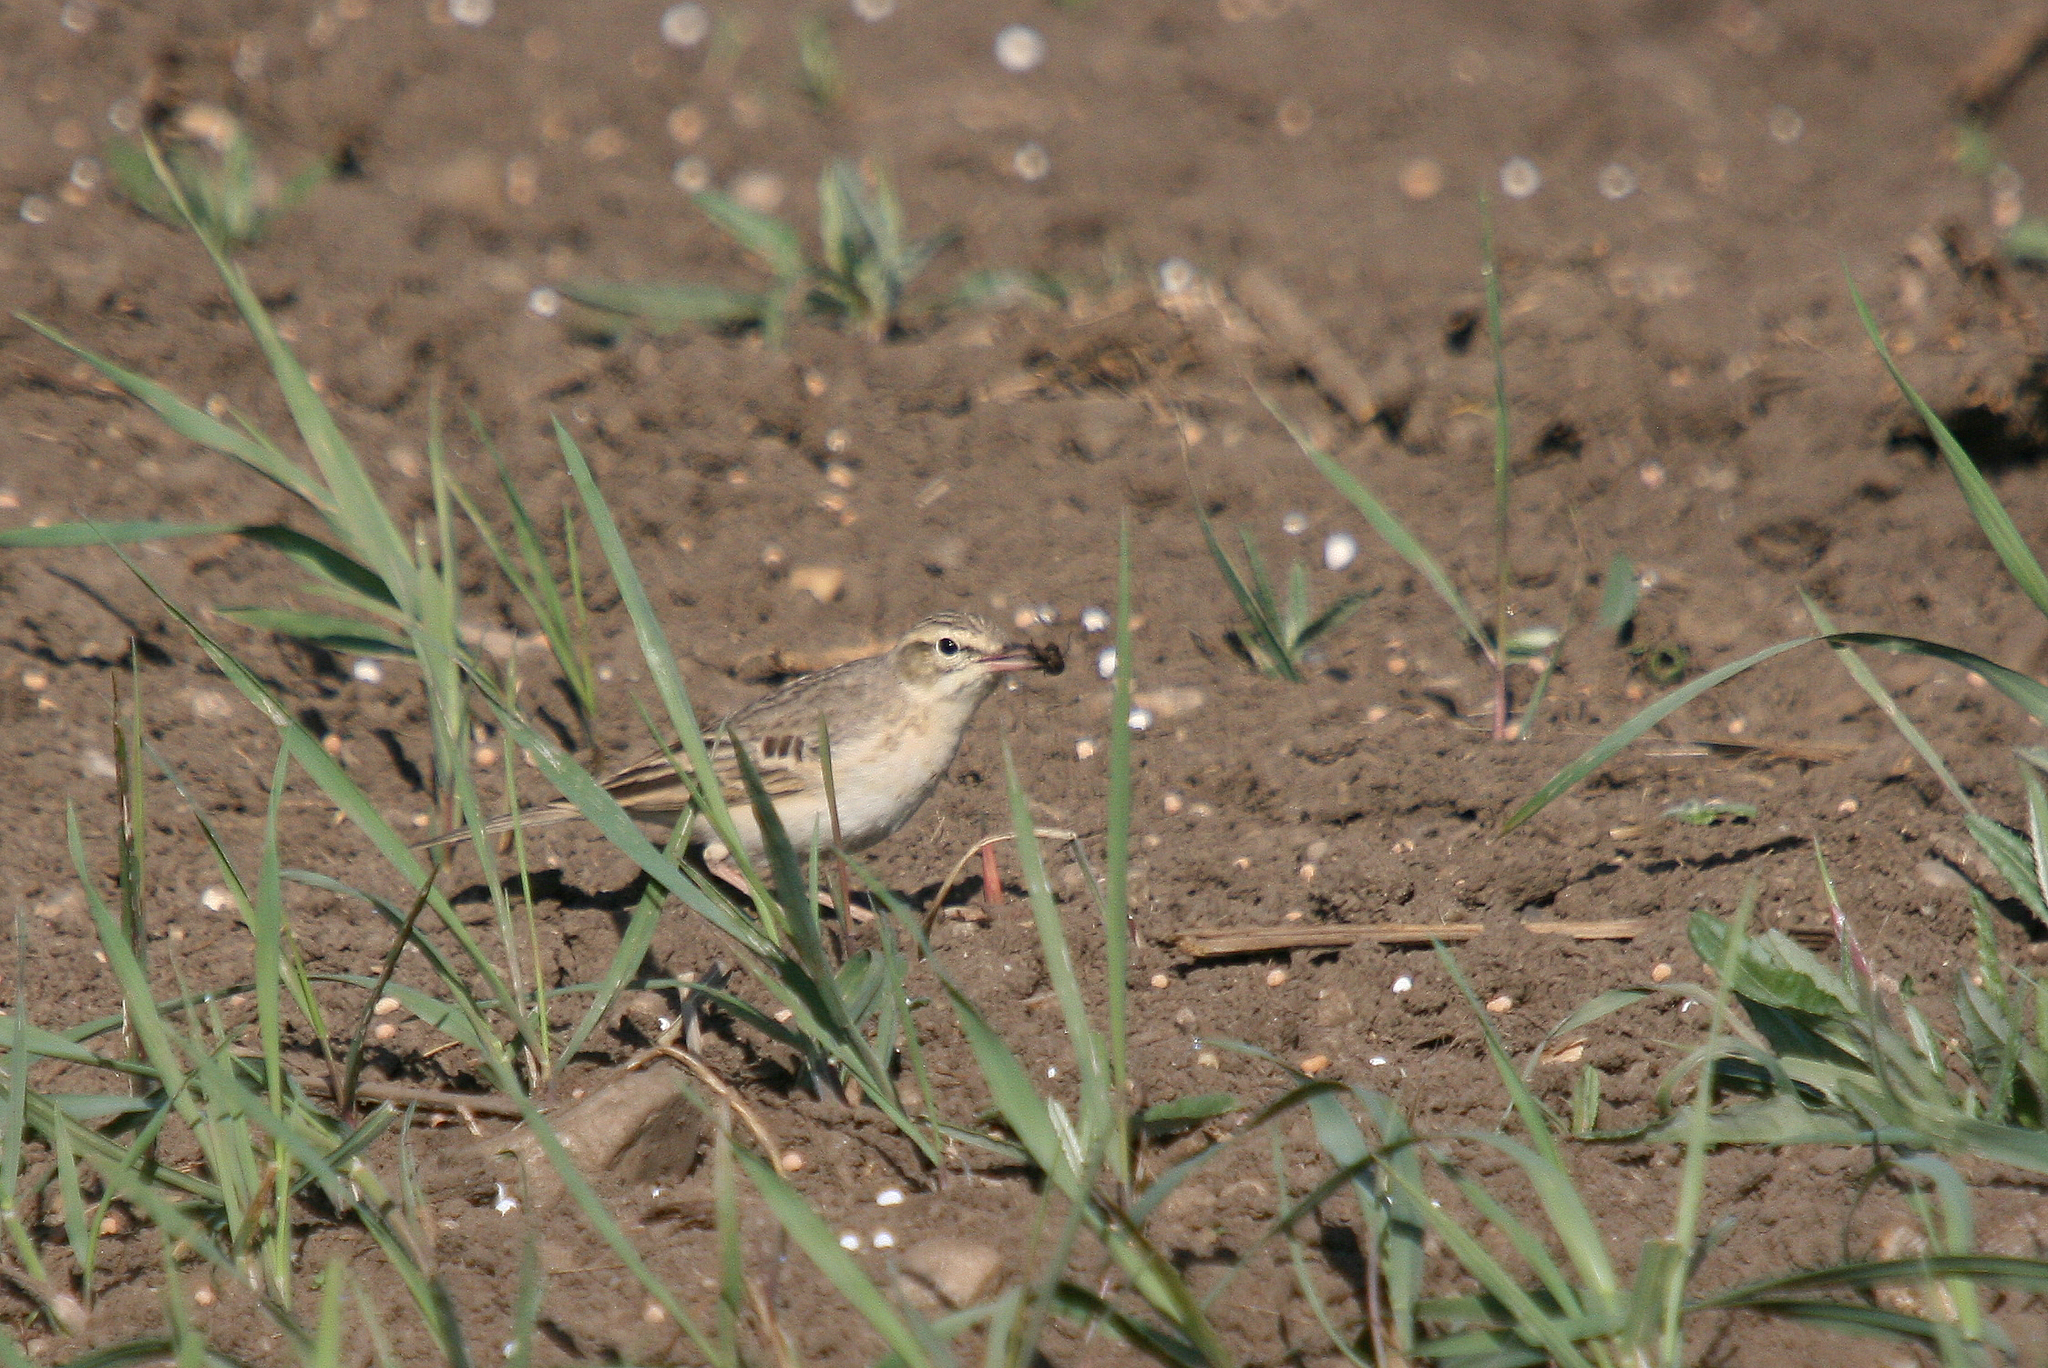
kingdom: Animalia
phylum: Chordata
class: Aves
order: Passeriformes
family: Motacillidae
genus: Anthus
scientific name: Anthus campestris
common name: Tawny pipit
